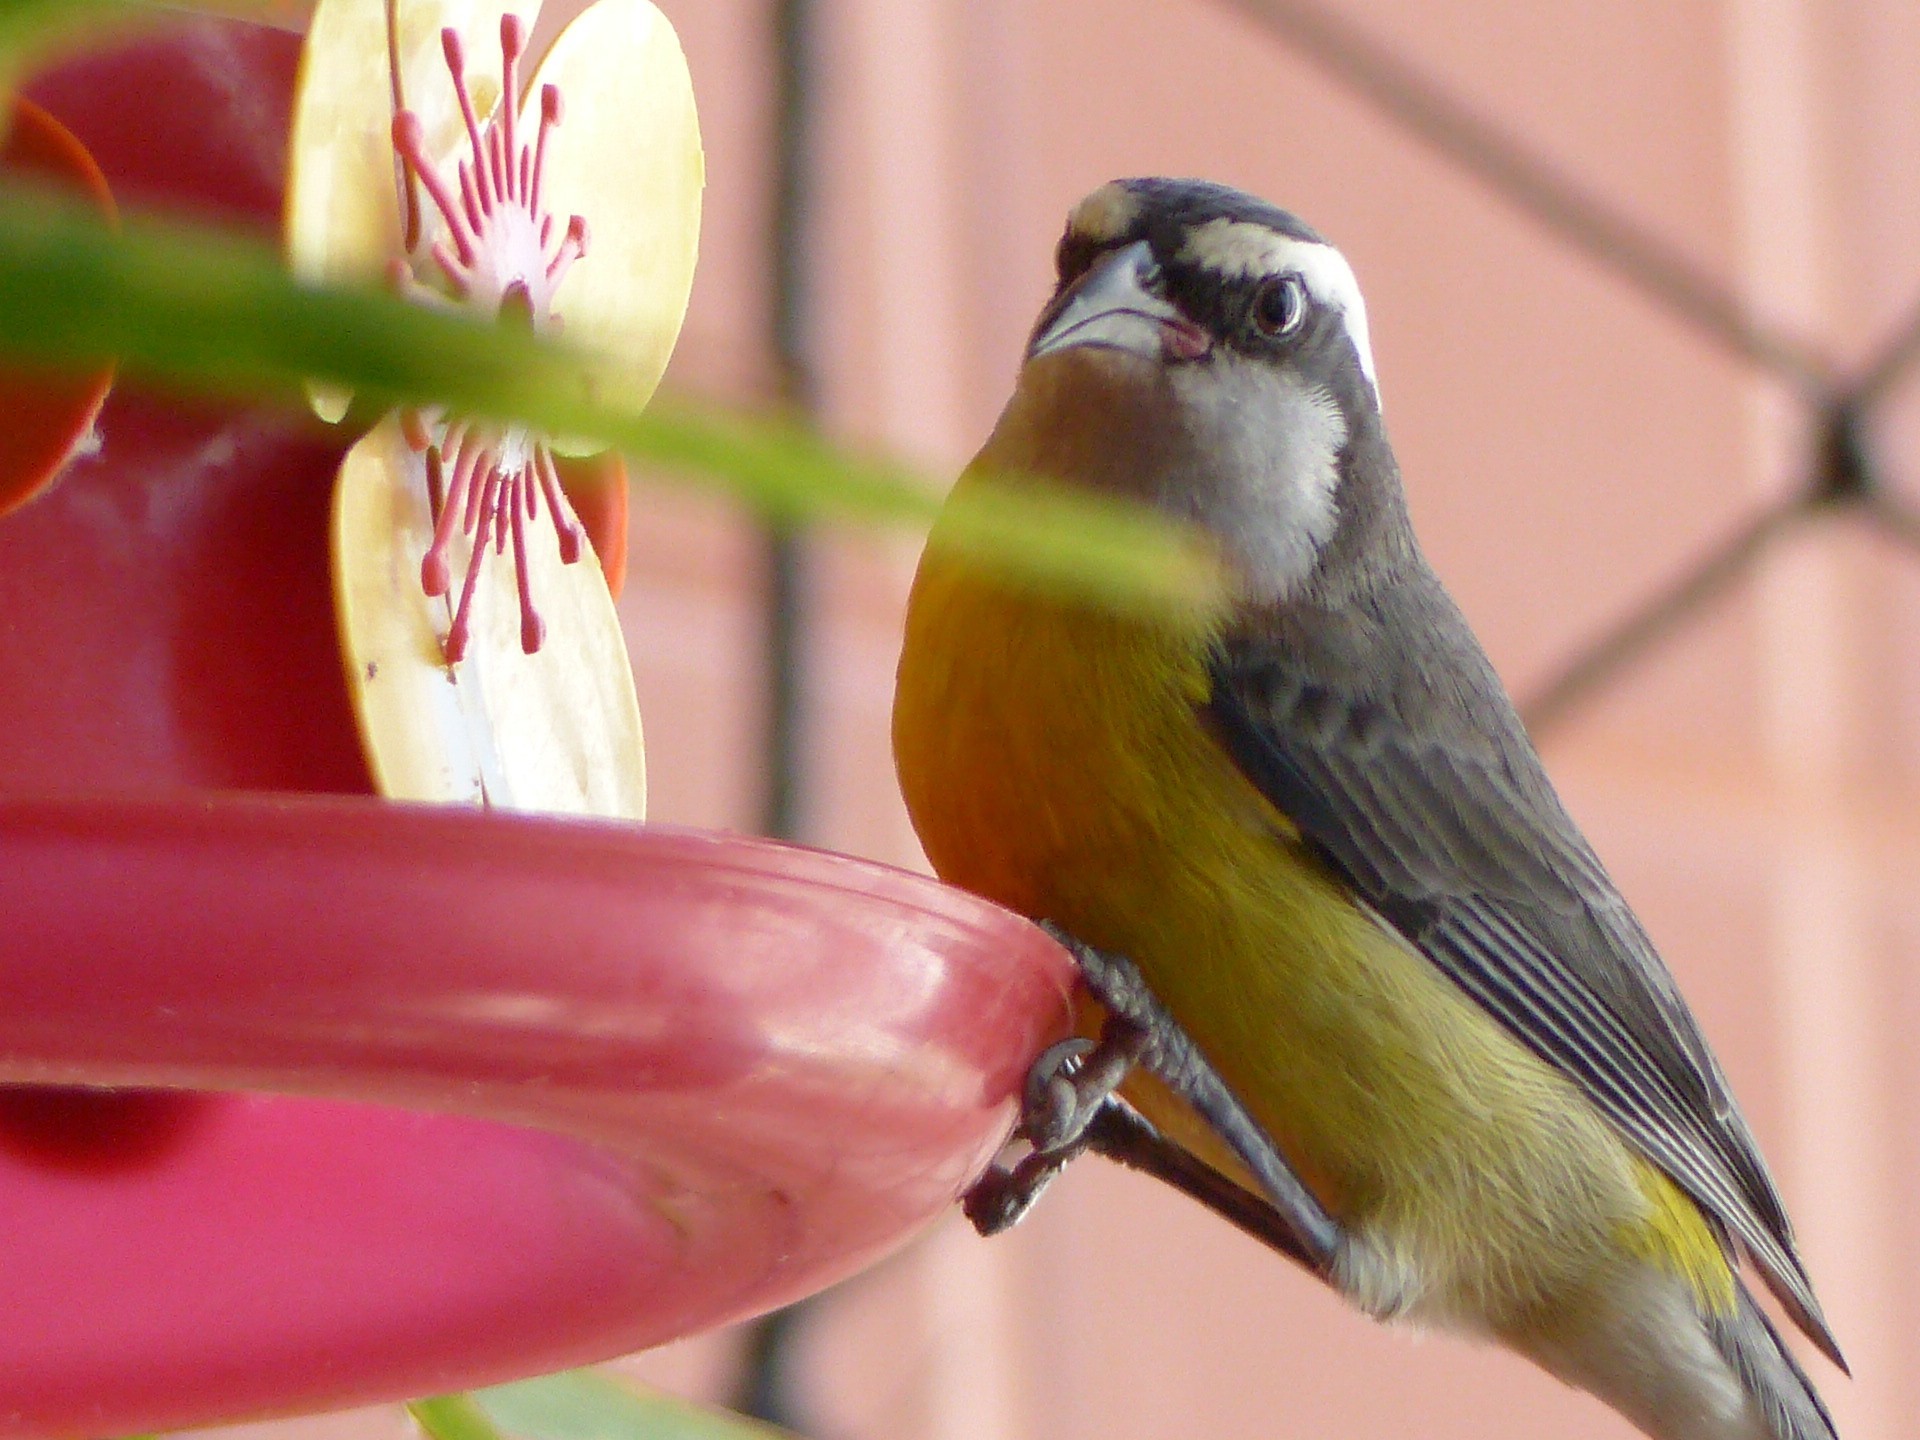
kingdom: Animalia
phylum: Chordata
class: Aves
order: Passeriformes
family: Thraupidae
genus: Coereba
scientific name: Coereba flaveola
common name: Bananaquit
